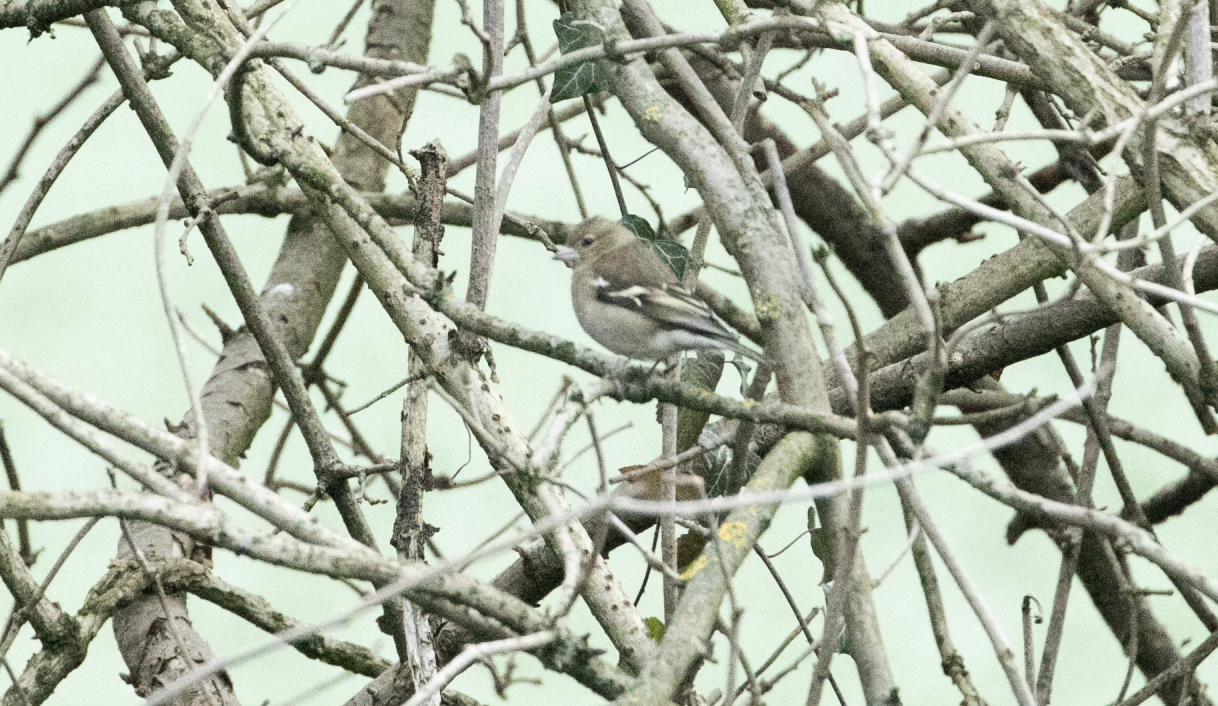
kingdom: Animalia
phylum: Chordata
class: Aves
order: Passeriformes
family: Fringillidae
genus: Fringilla
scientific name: Fringilla coelebs
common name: Common chaffinch
